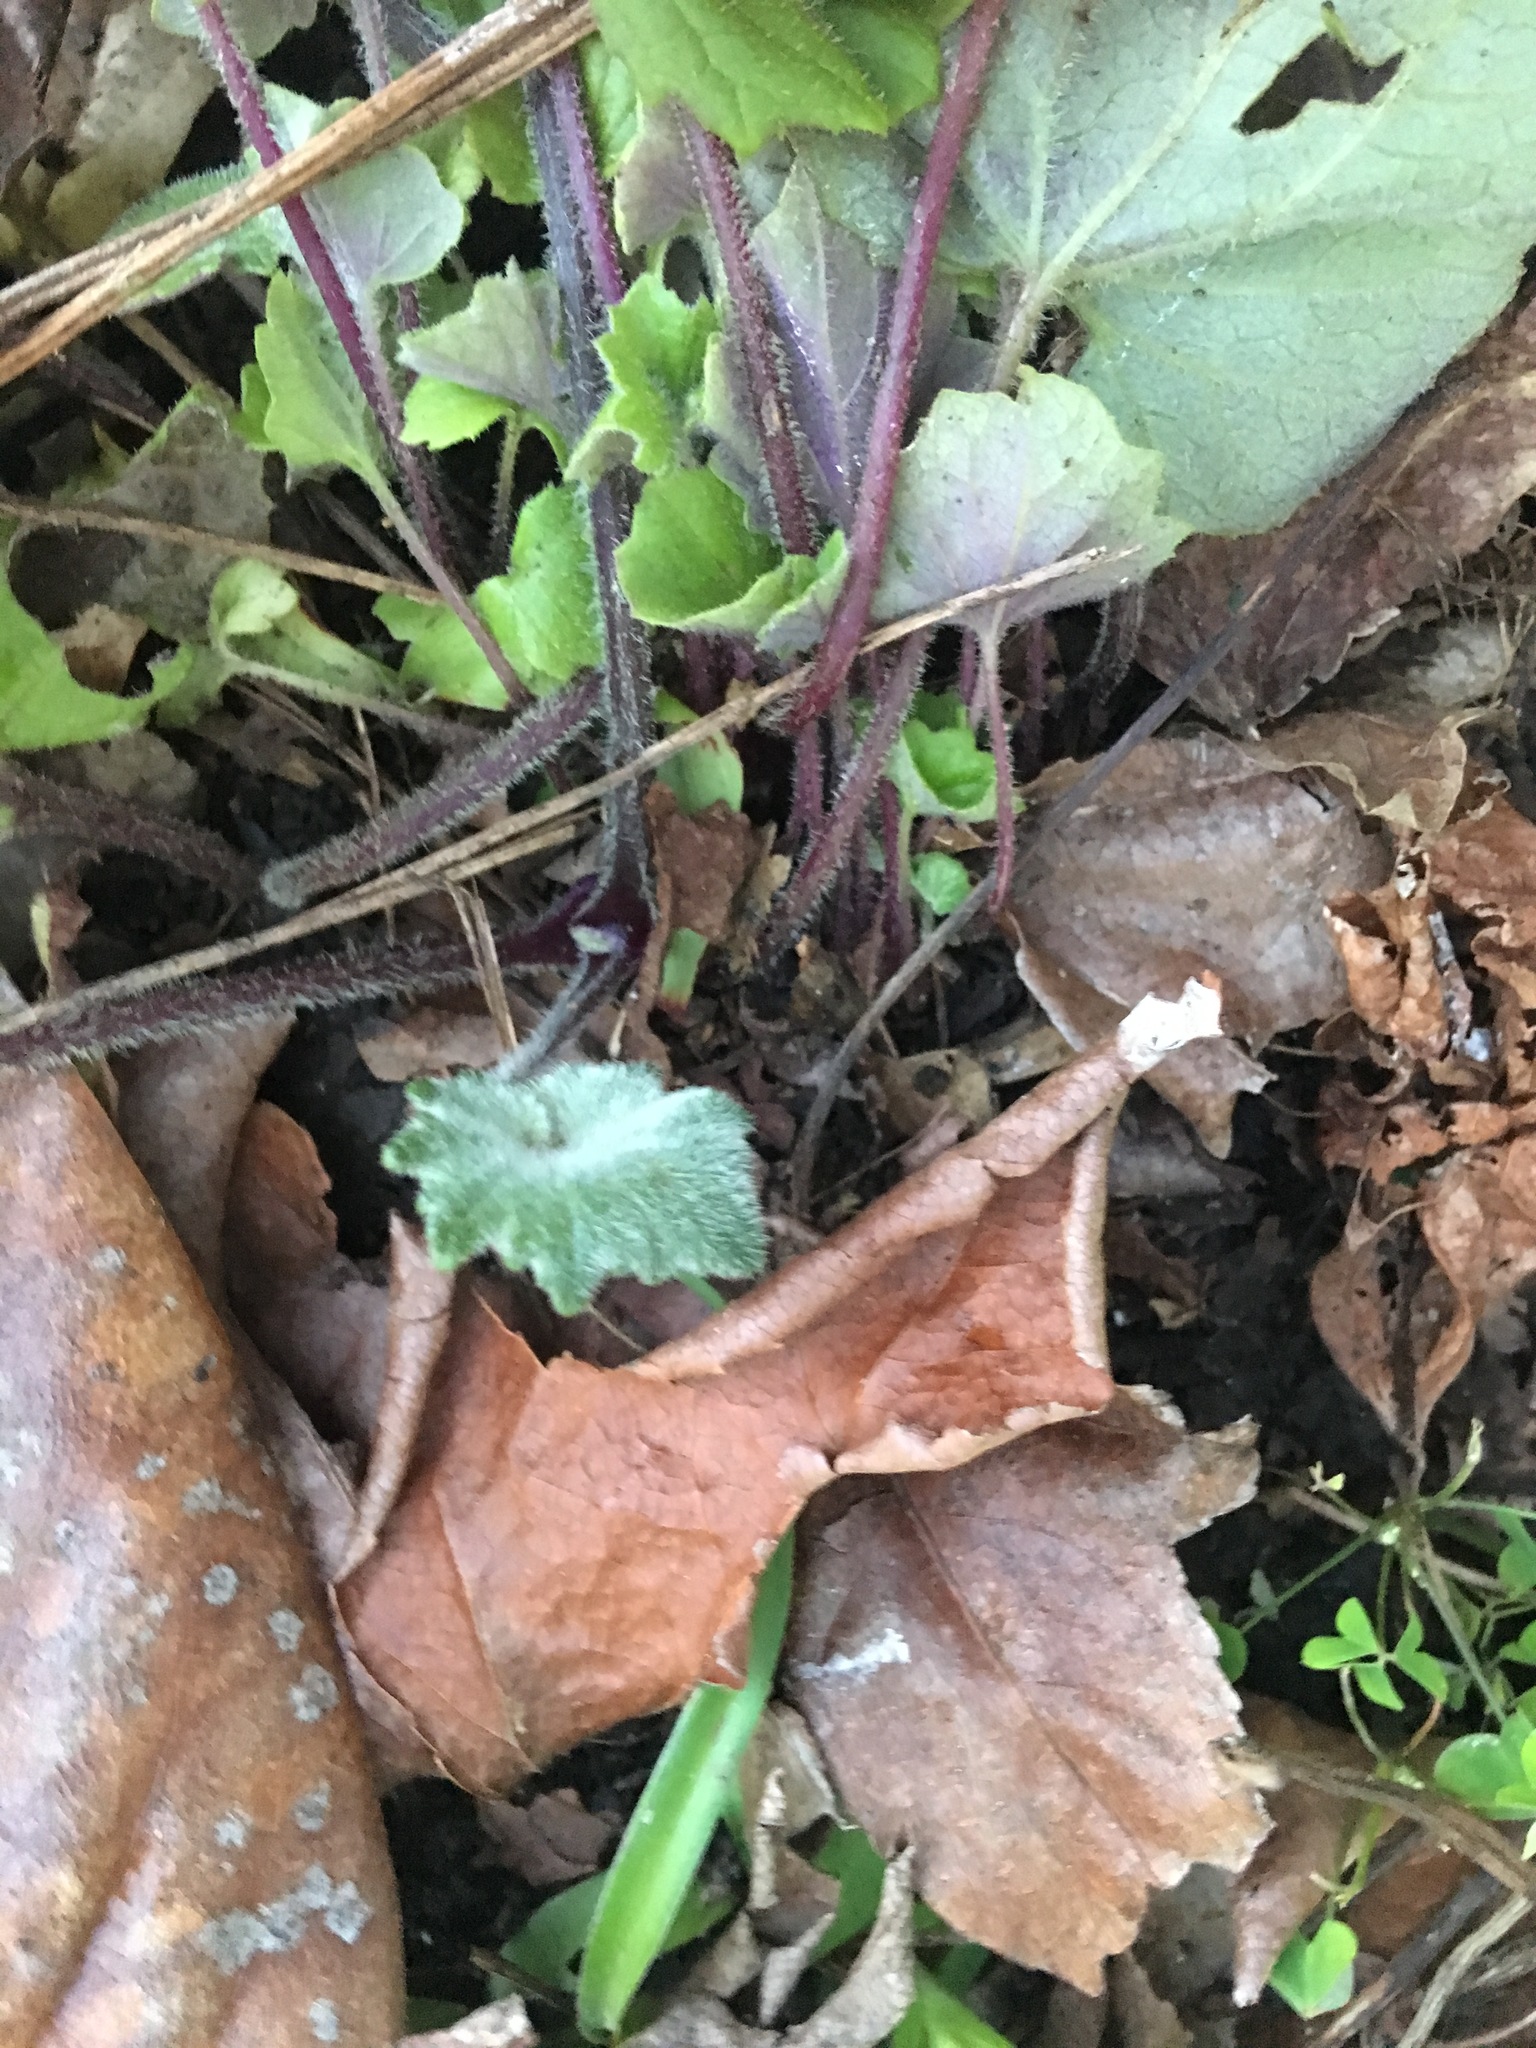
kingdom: Plantae
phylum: Tracheophyta
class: Magnoliopsida
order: Asterales
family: Asteraceae
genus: Pericallis
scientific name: Pericallis hybrida
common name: Cineraria
